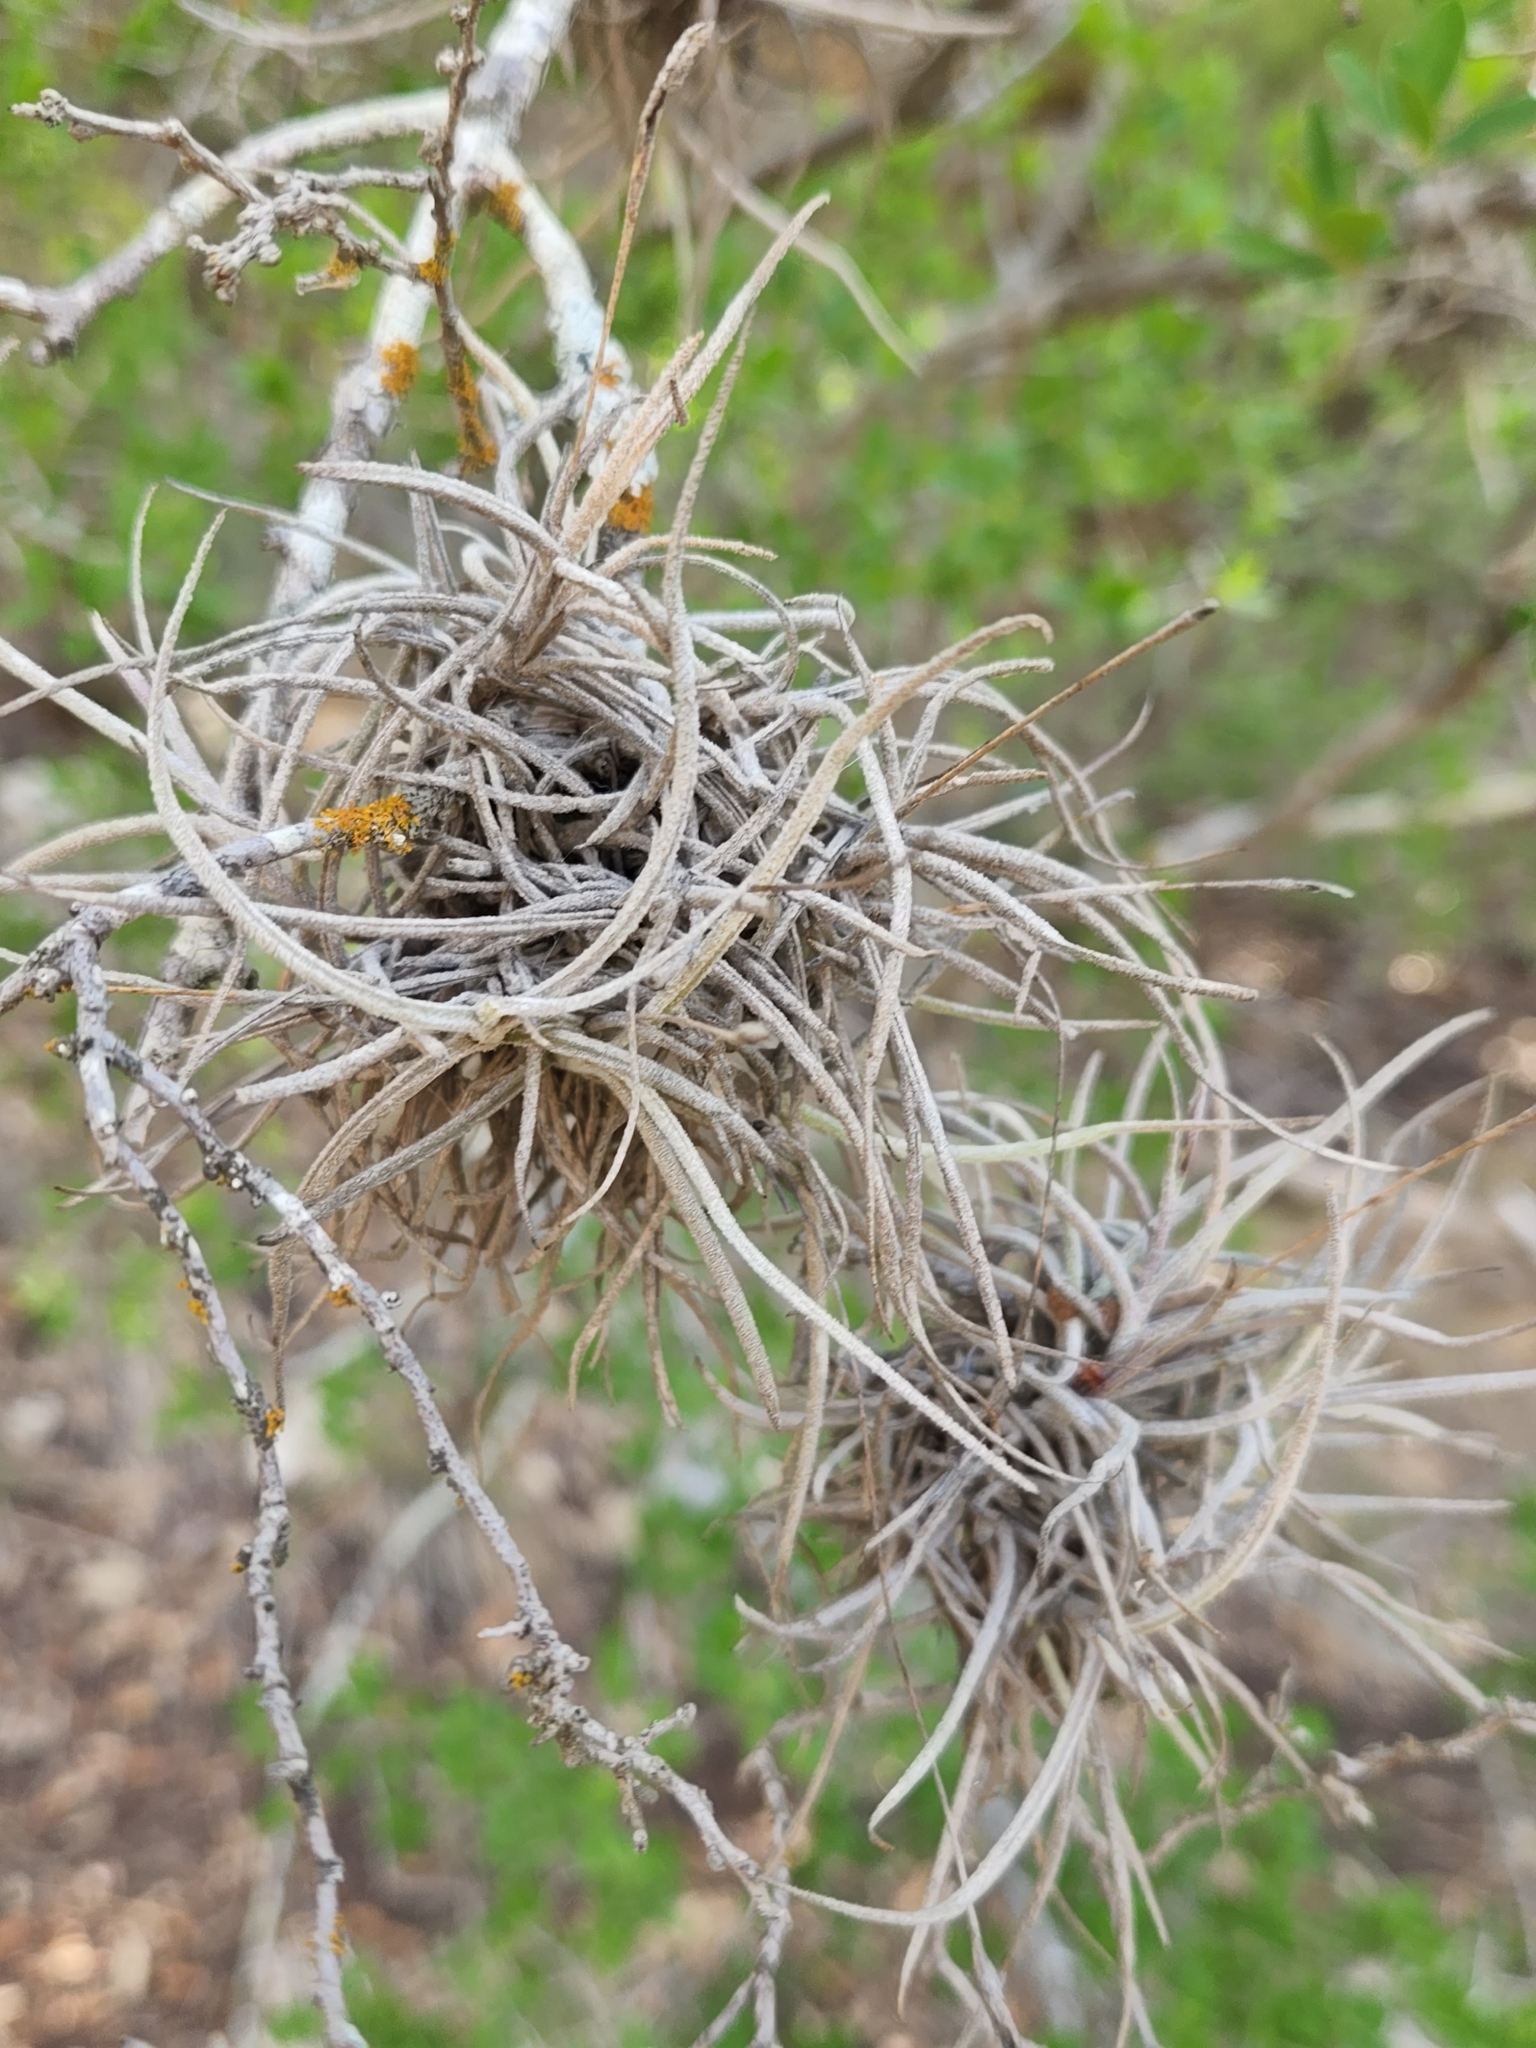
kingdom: Plantae
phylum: Tracheophyta
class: Liliopsida
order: Poales
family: Bromeliaceae
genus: Tillandsia
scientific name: Tillandsia recurvata
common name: Small ballmoss
